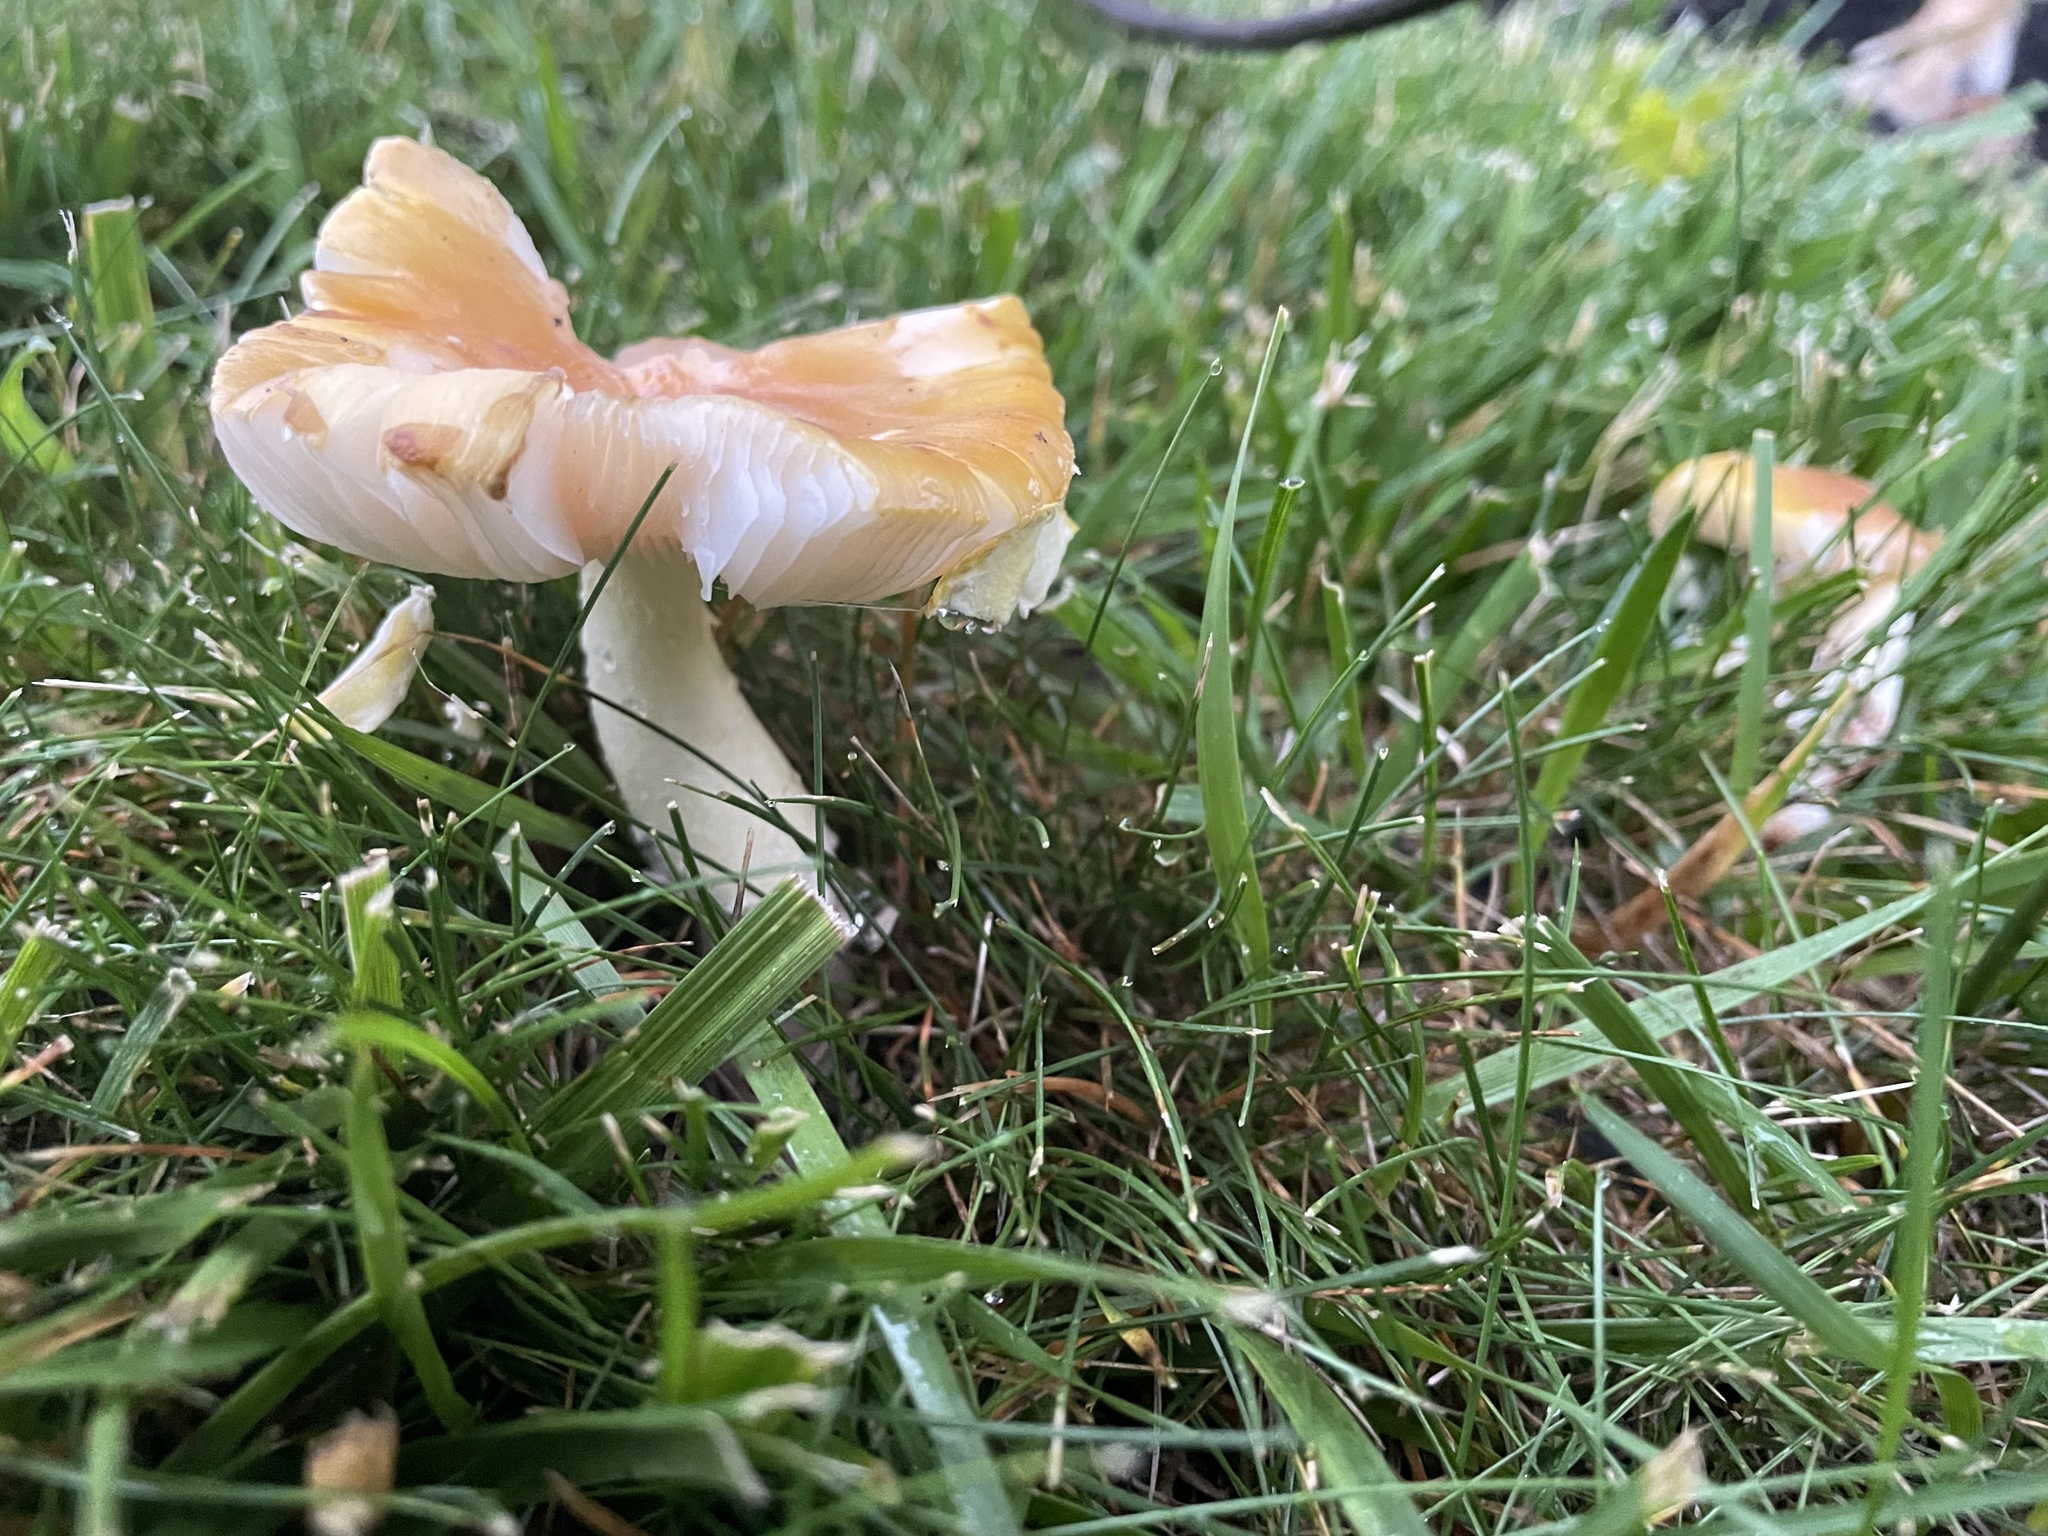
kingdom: Fungi
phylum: Basidiomycota
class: Agaricomycetes
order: Agaricales
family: Amanitaceae
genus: Amanita
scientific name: Amanita flavorubens
